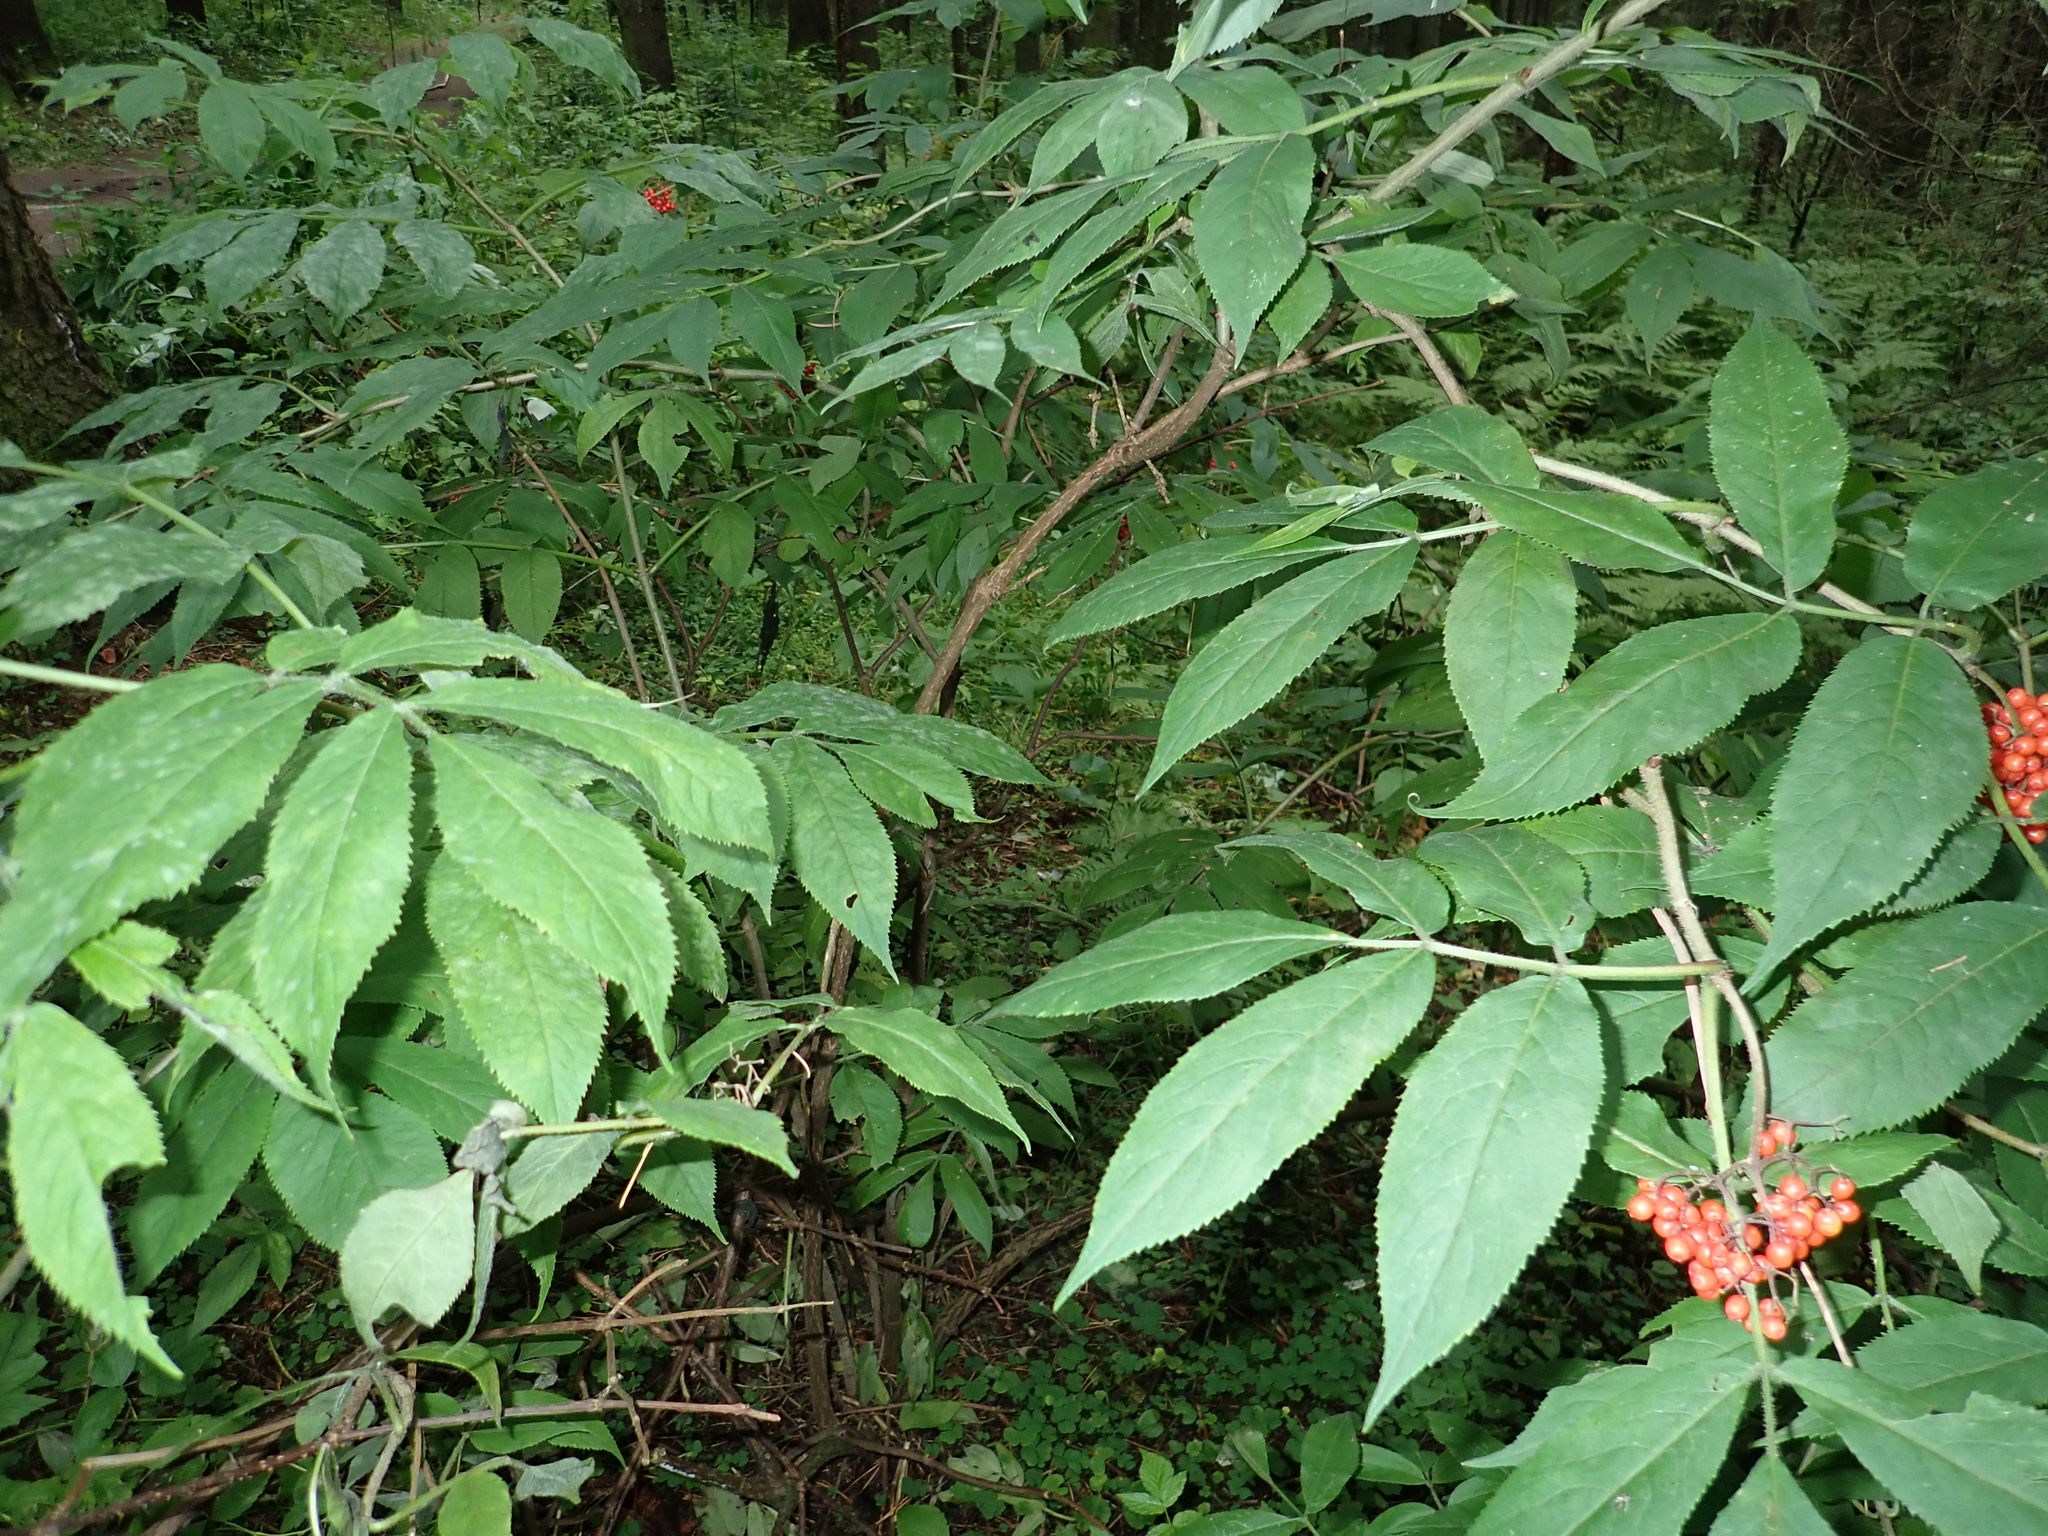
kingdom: Plantae
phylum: Tracheophyta
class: Magnoliopsida
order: Dipsacales
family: Viburnaceae
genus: Sambucus
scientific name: Sambucus racemosa
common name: Red-berried elder
